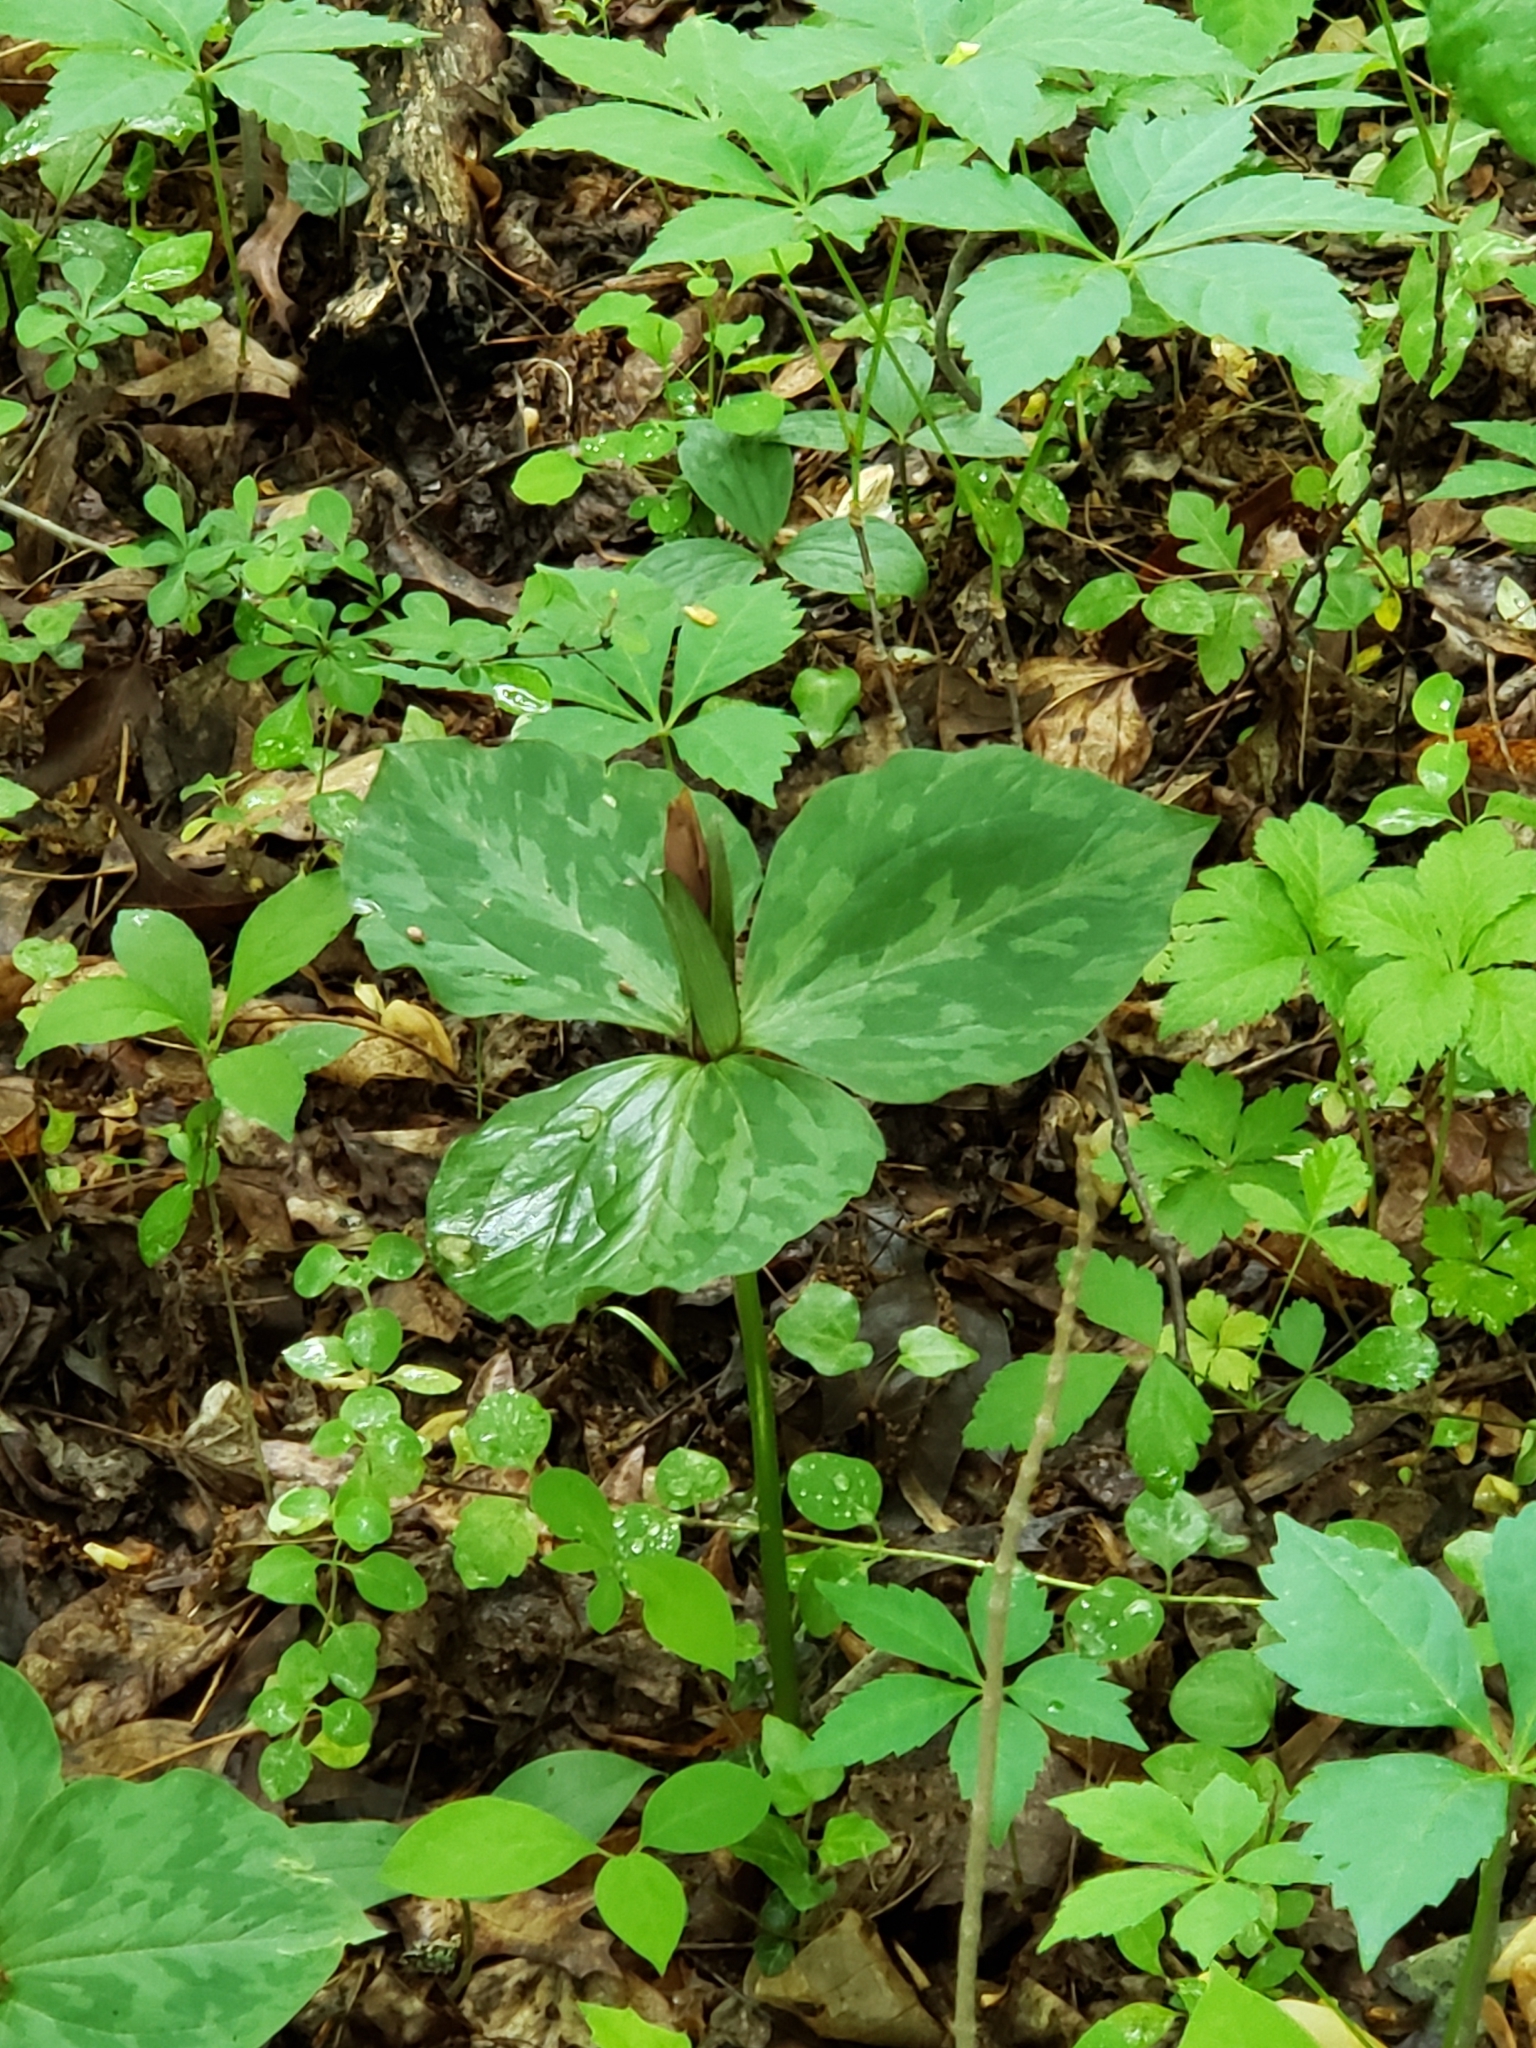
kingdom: Plantae
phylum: Tracheophyta
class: Liliopsida
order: Liliales
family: Melanthiaceae
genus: Trillium
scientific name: Trillium cuneatum
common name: Cuneate trillium
